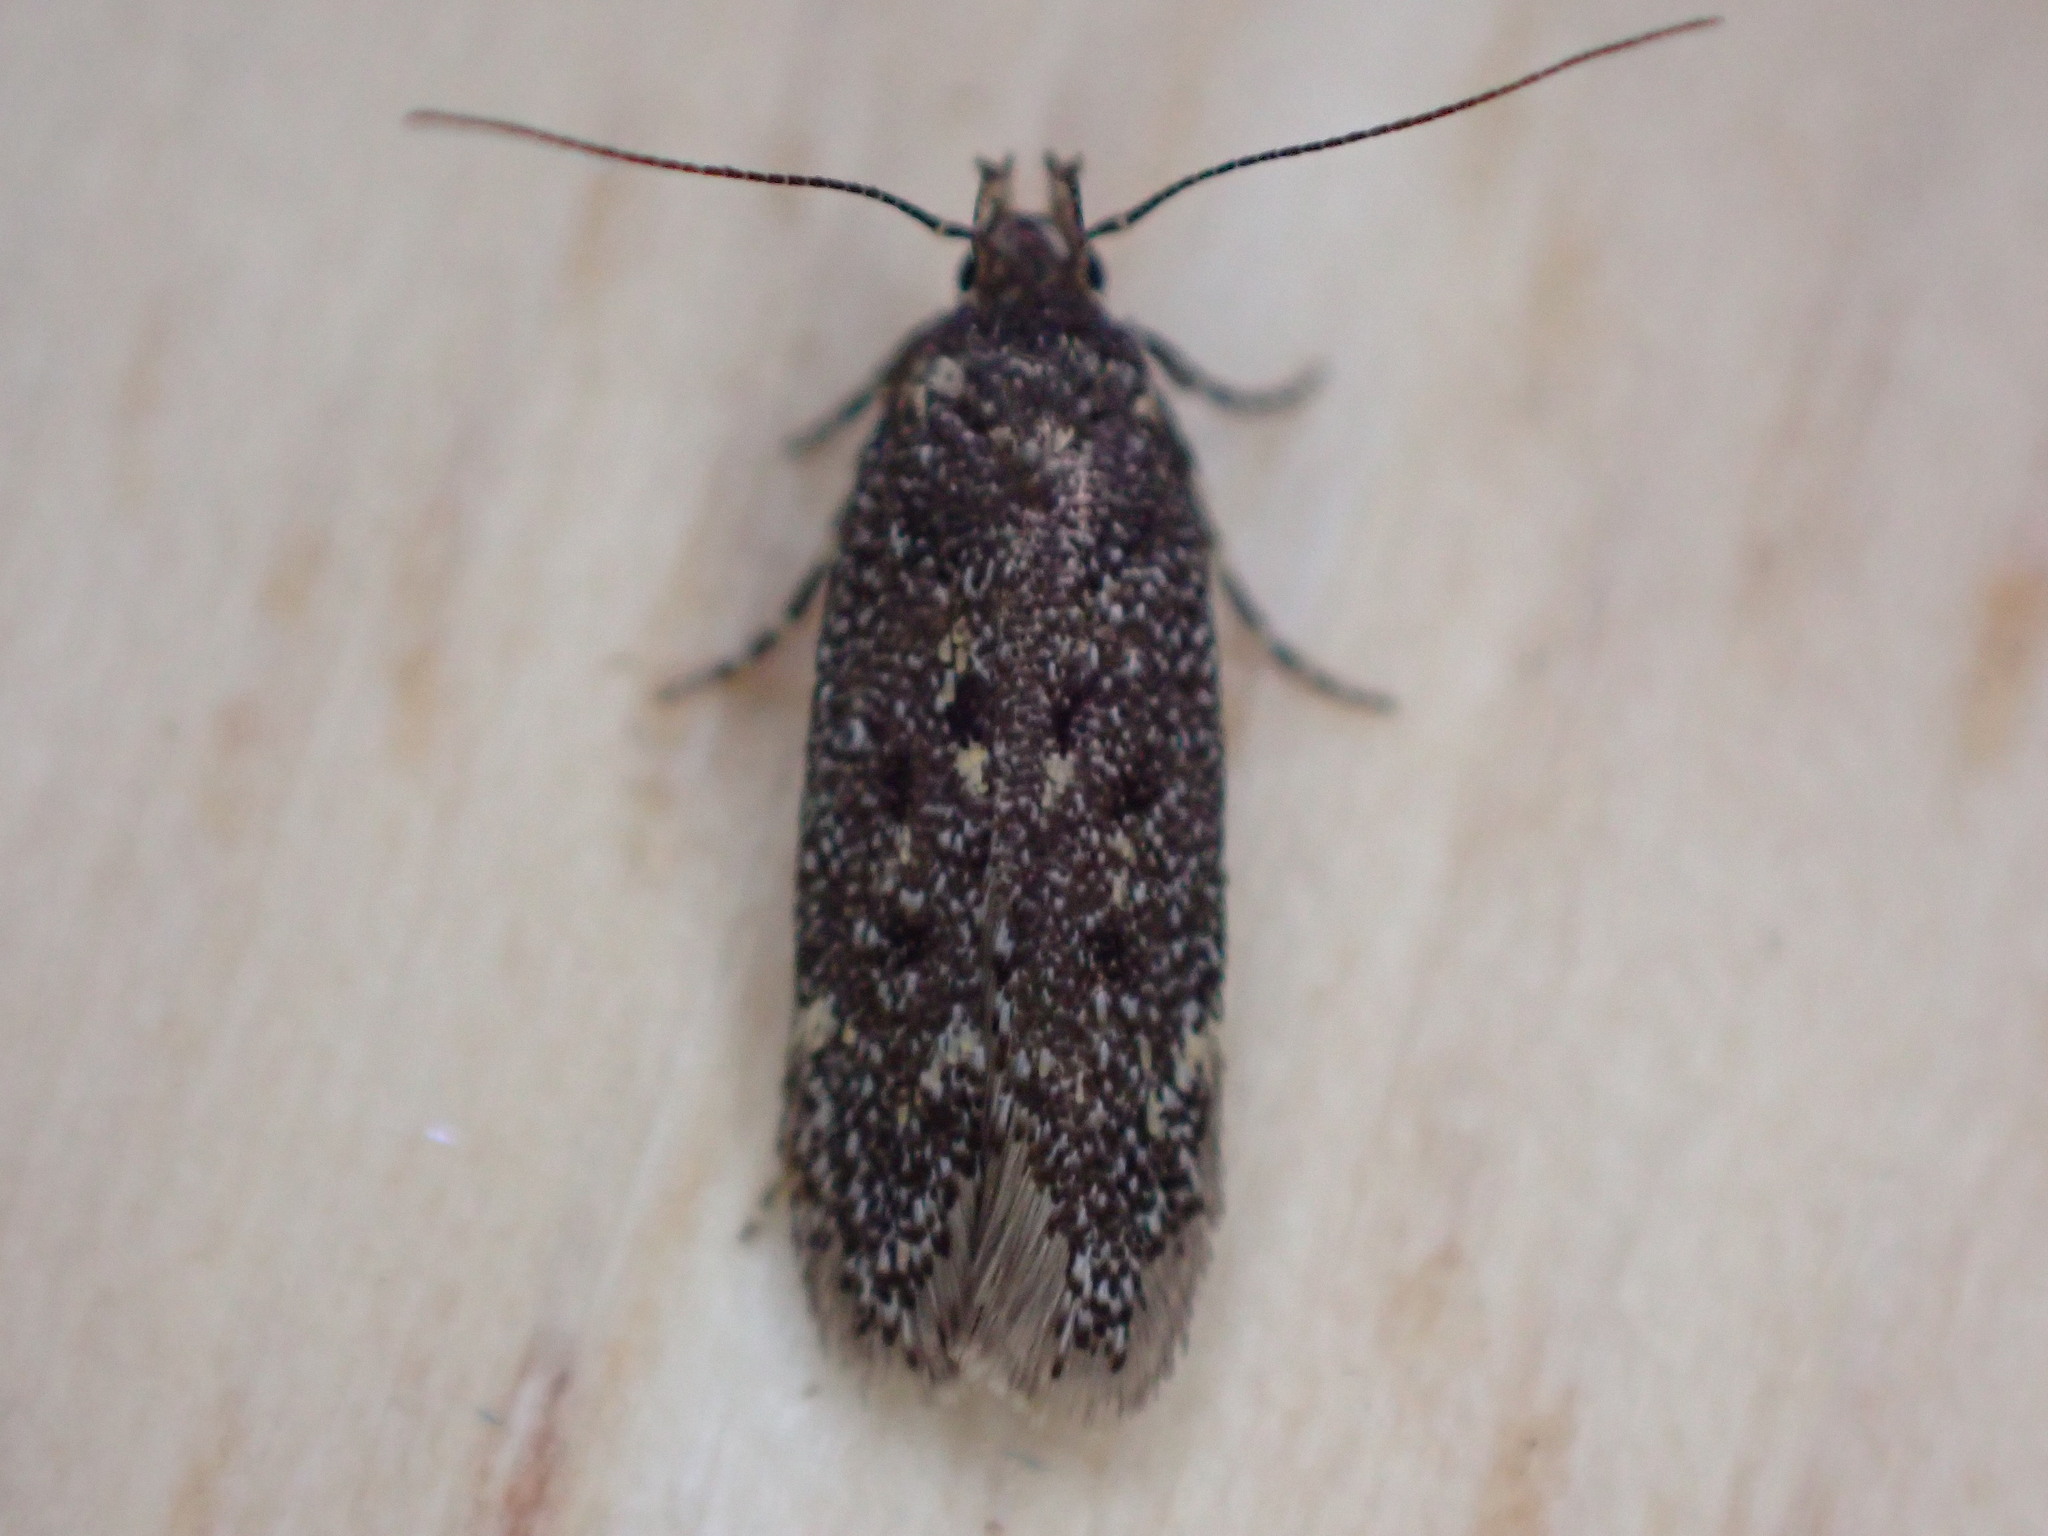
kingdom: Animalia
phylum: Arthropoda
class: Insecta
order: Lepidoptera
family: Gelechiidae
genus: Bryotropha
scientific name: Bryotropha affinis
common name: Dark groundling
